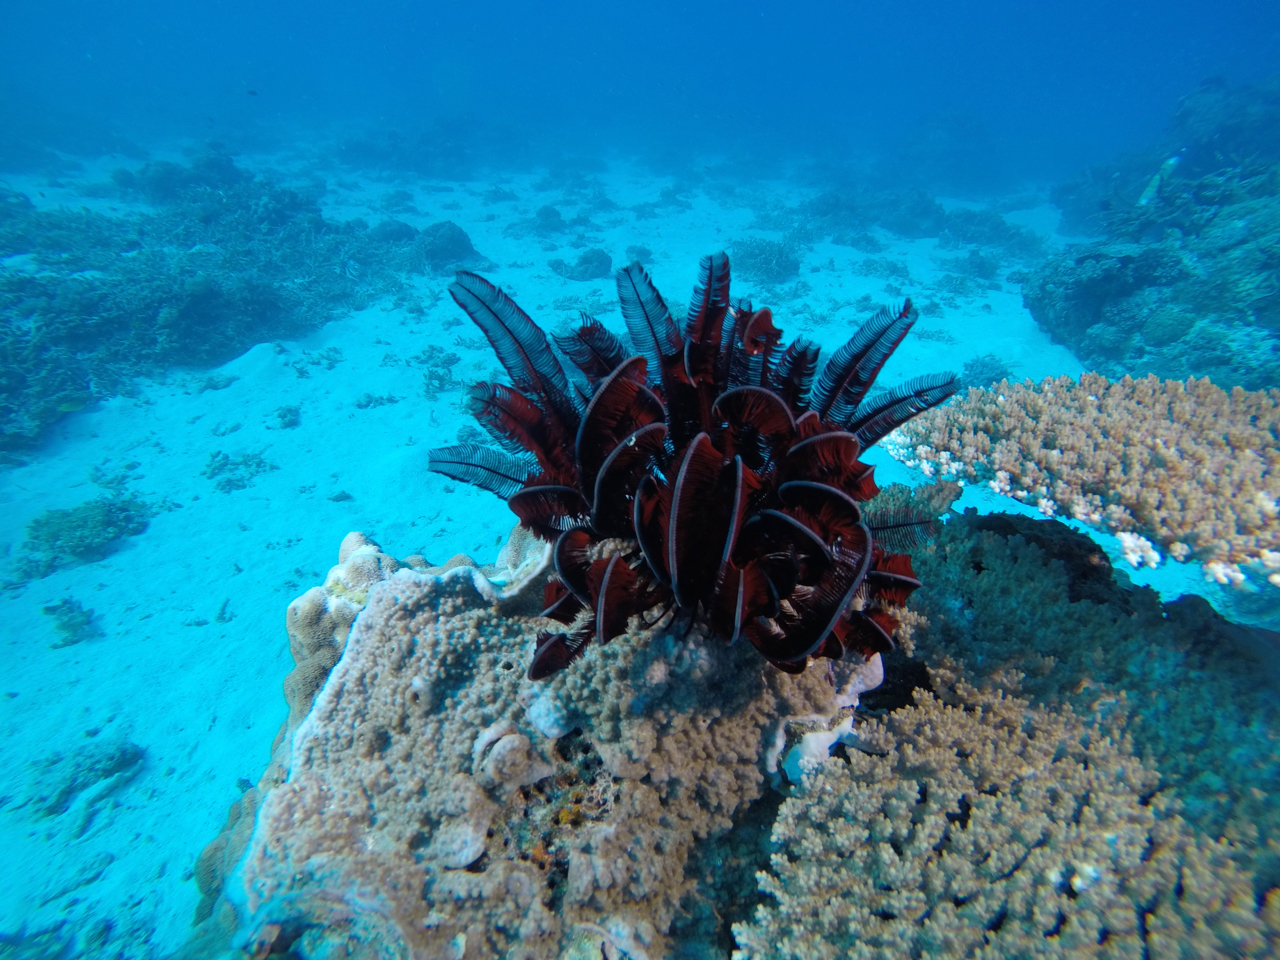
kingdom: Animalia
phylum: Echinodermata
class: Crinoidea
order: Comatulida
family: Himerometridae
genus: Himerometra
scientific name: Himerometra robustipinna
